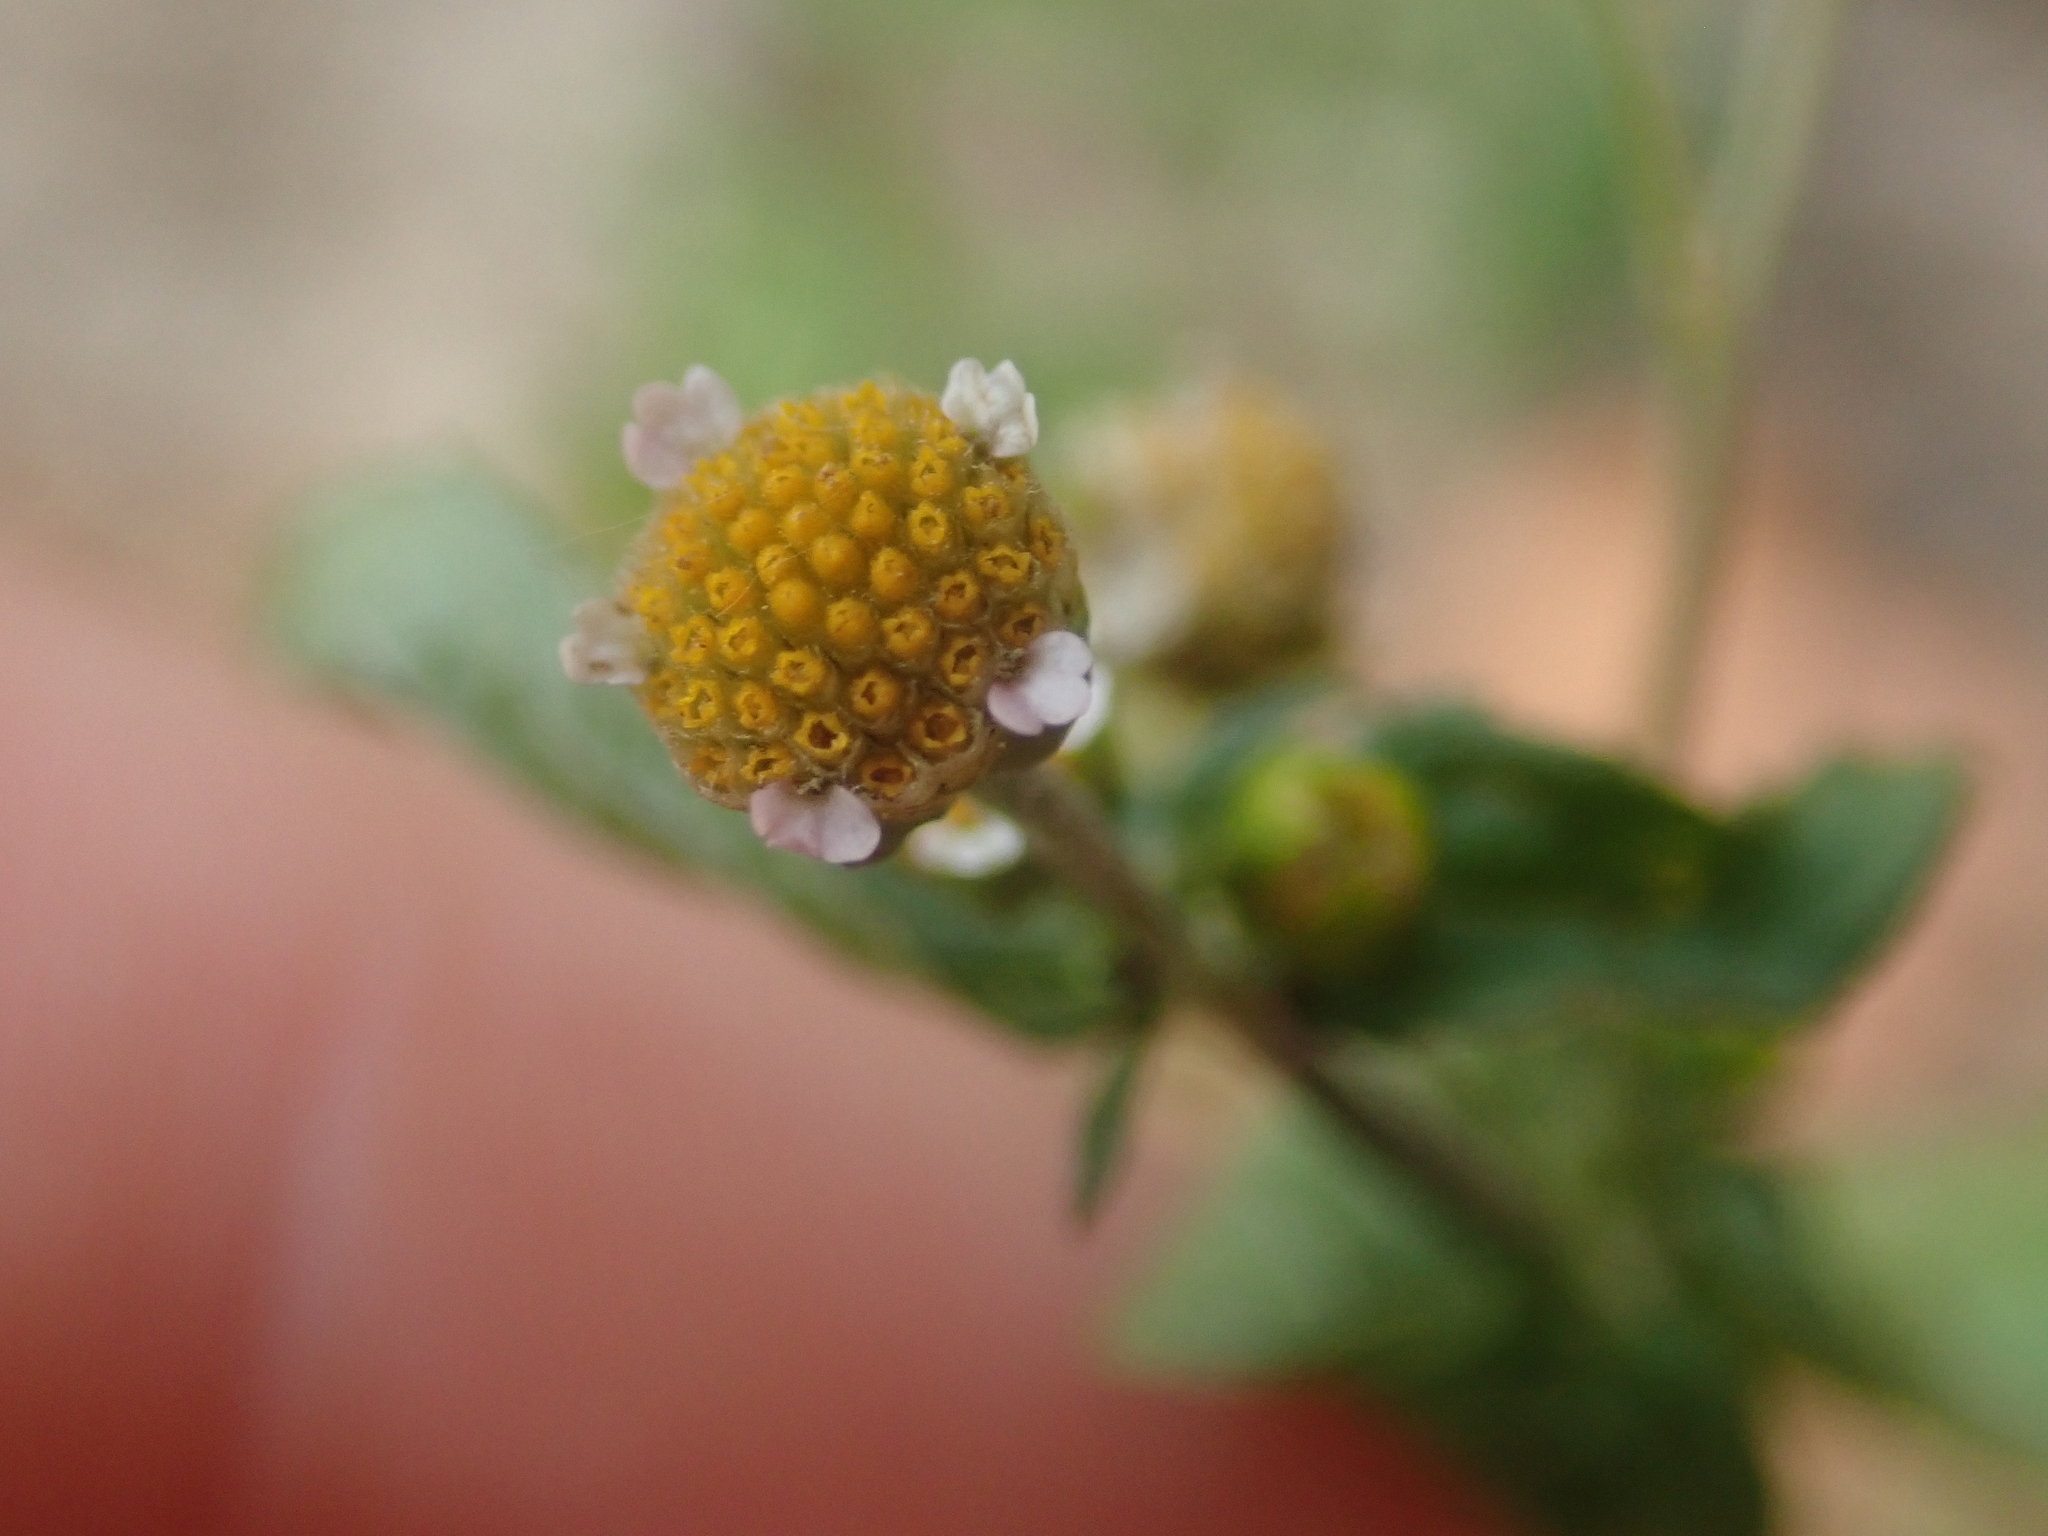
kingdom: Plantae
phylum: Tracheophyta
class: Magnoliopsida
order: Asterales
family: Asteraceae
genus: Galinsoga
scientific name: Galinsoga parviflora
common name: Gallant soldier
